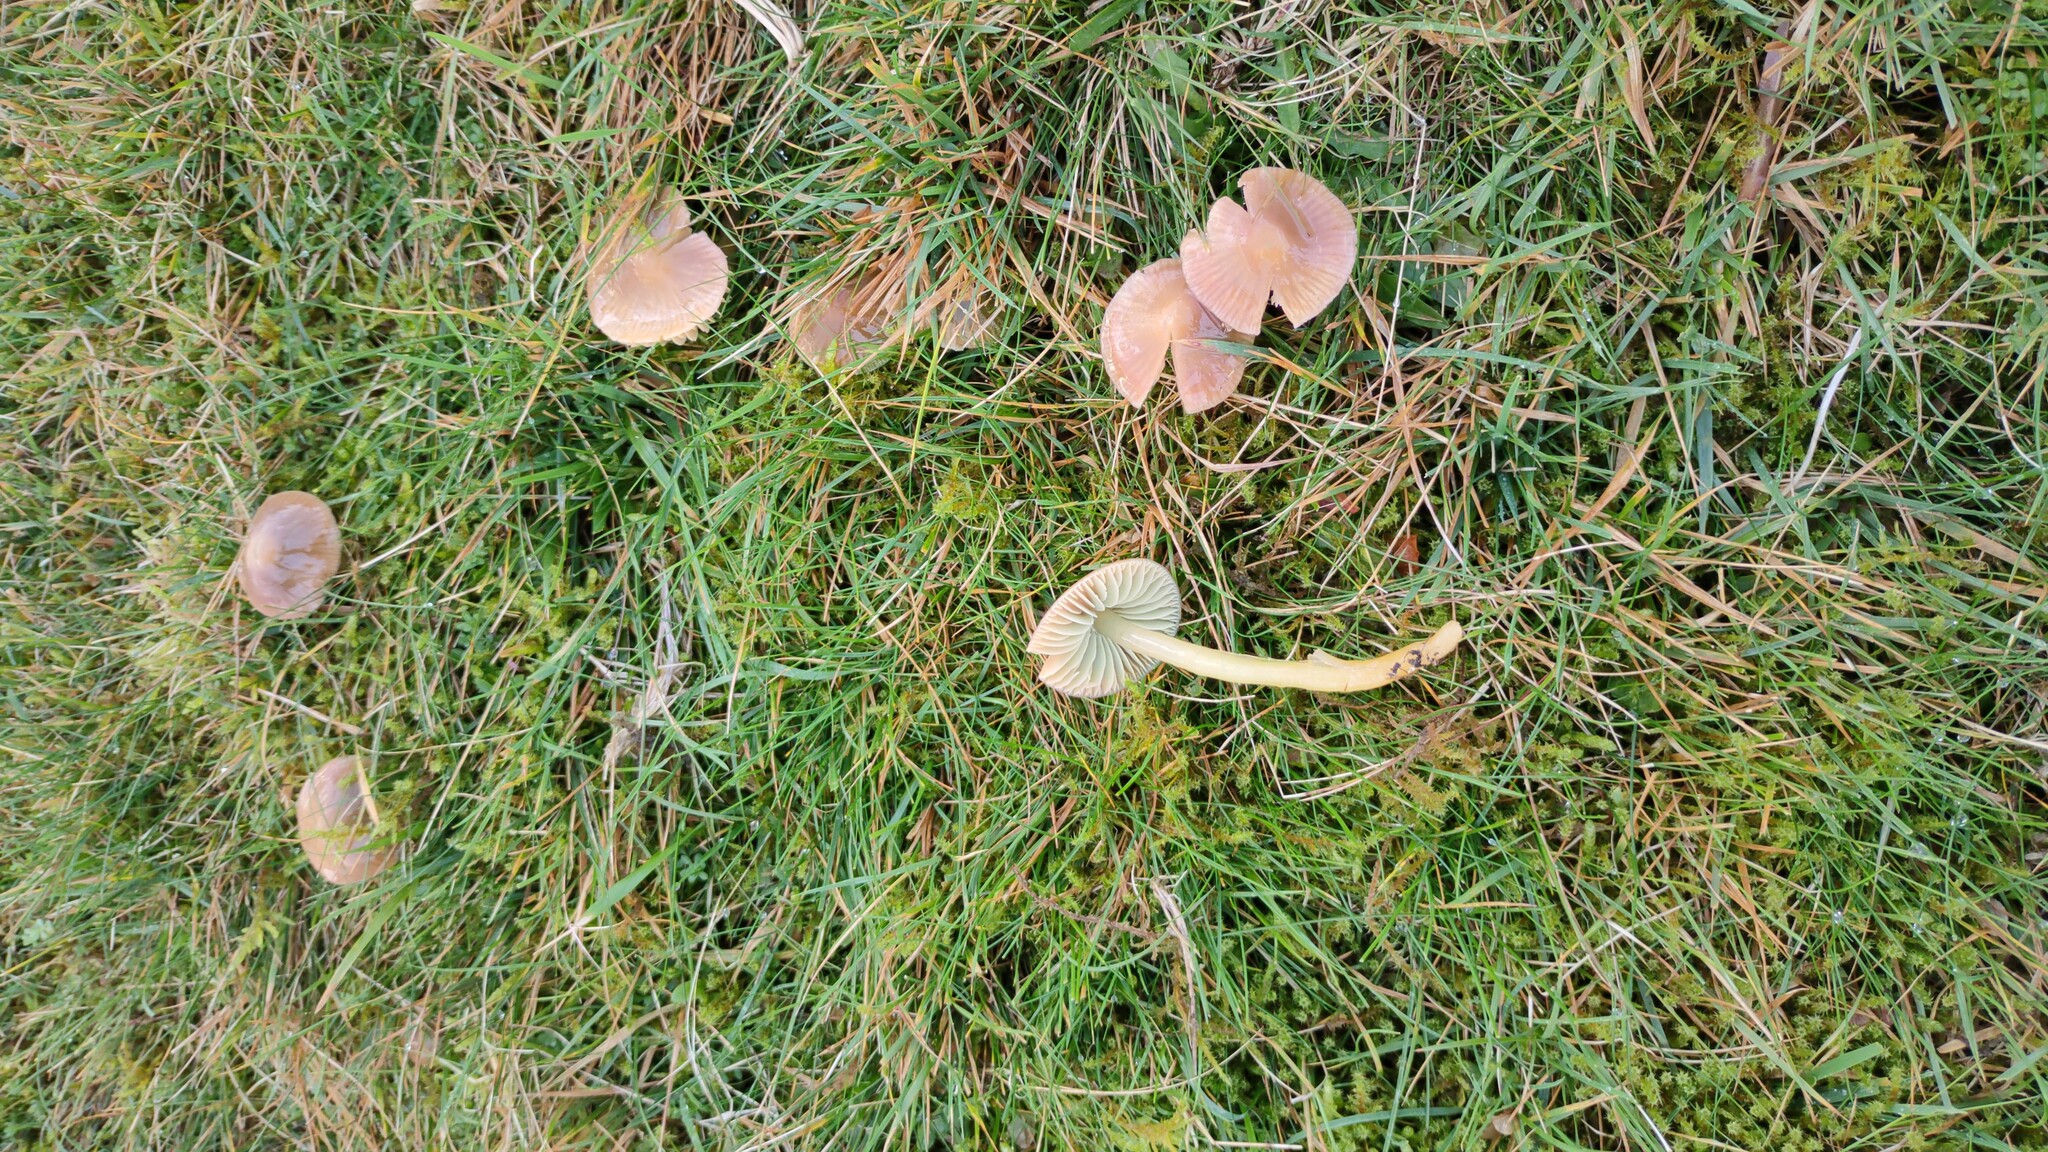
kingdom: Fungi
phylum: Basidiomycota
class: Agaricomycetes
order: Agaricales
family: Hygrophoraceae
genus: Gliophorus
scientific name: Gliophorus psittacinus
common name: Parrot wax-cap
